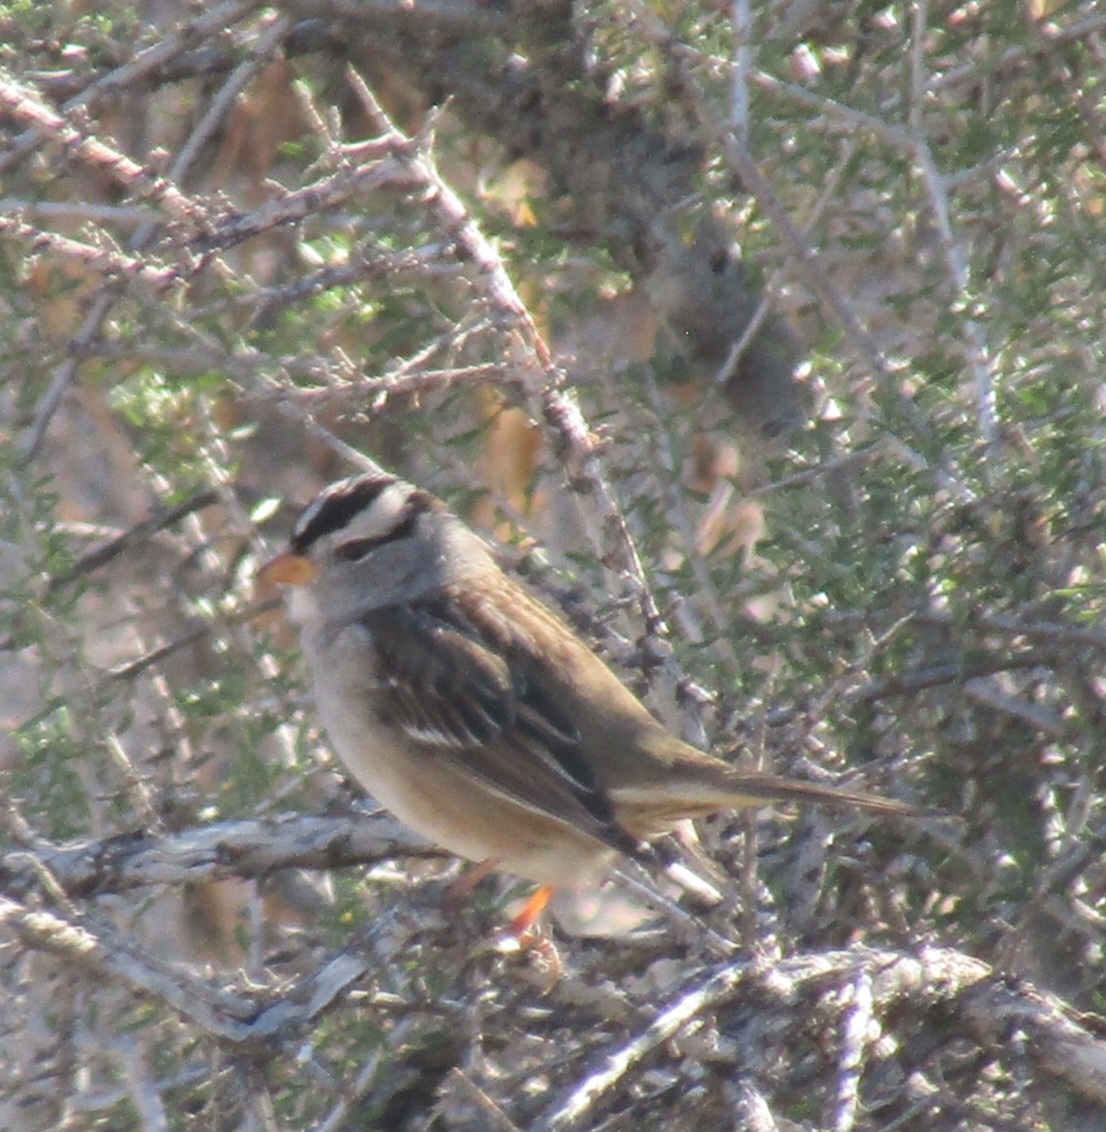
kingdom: Animalia
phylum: Chordata
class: Aves
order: Passeriformes
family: Passerellidae
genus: Zonotrichia
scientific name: Zonotrichia leucophrys
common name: White-crowned sparrow
